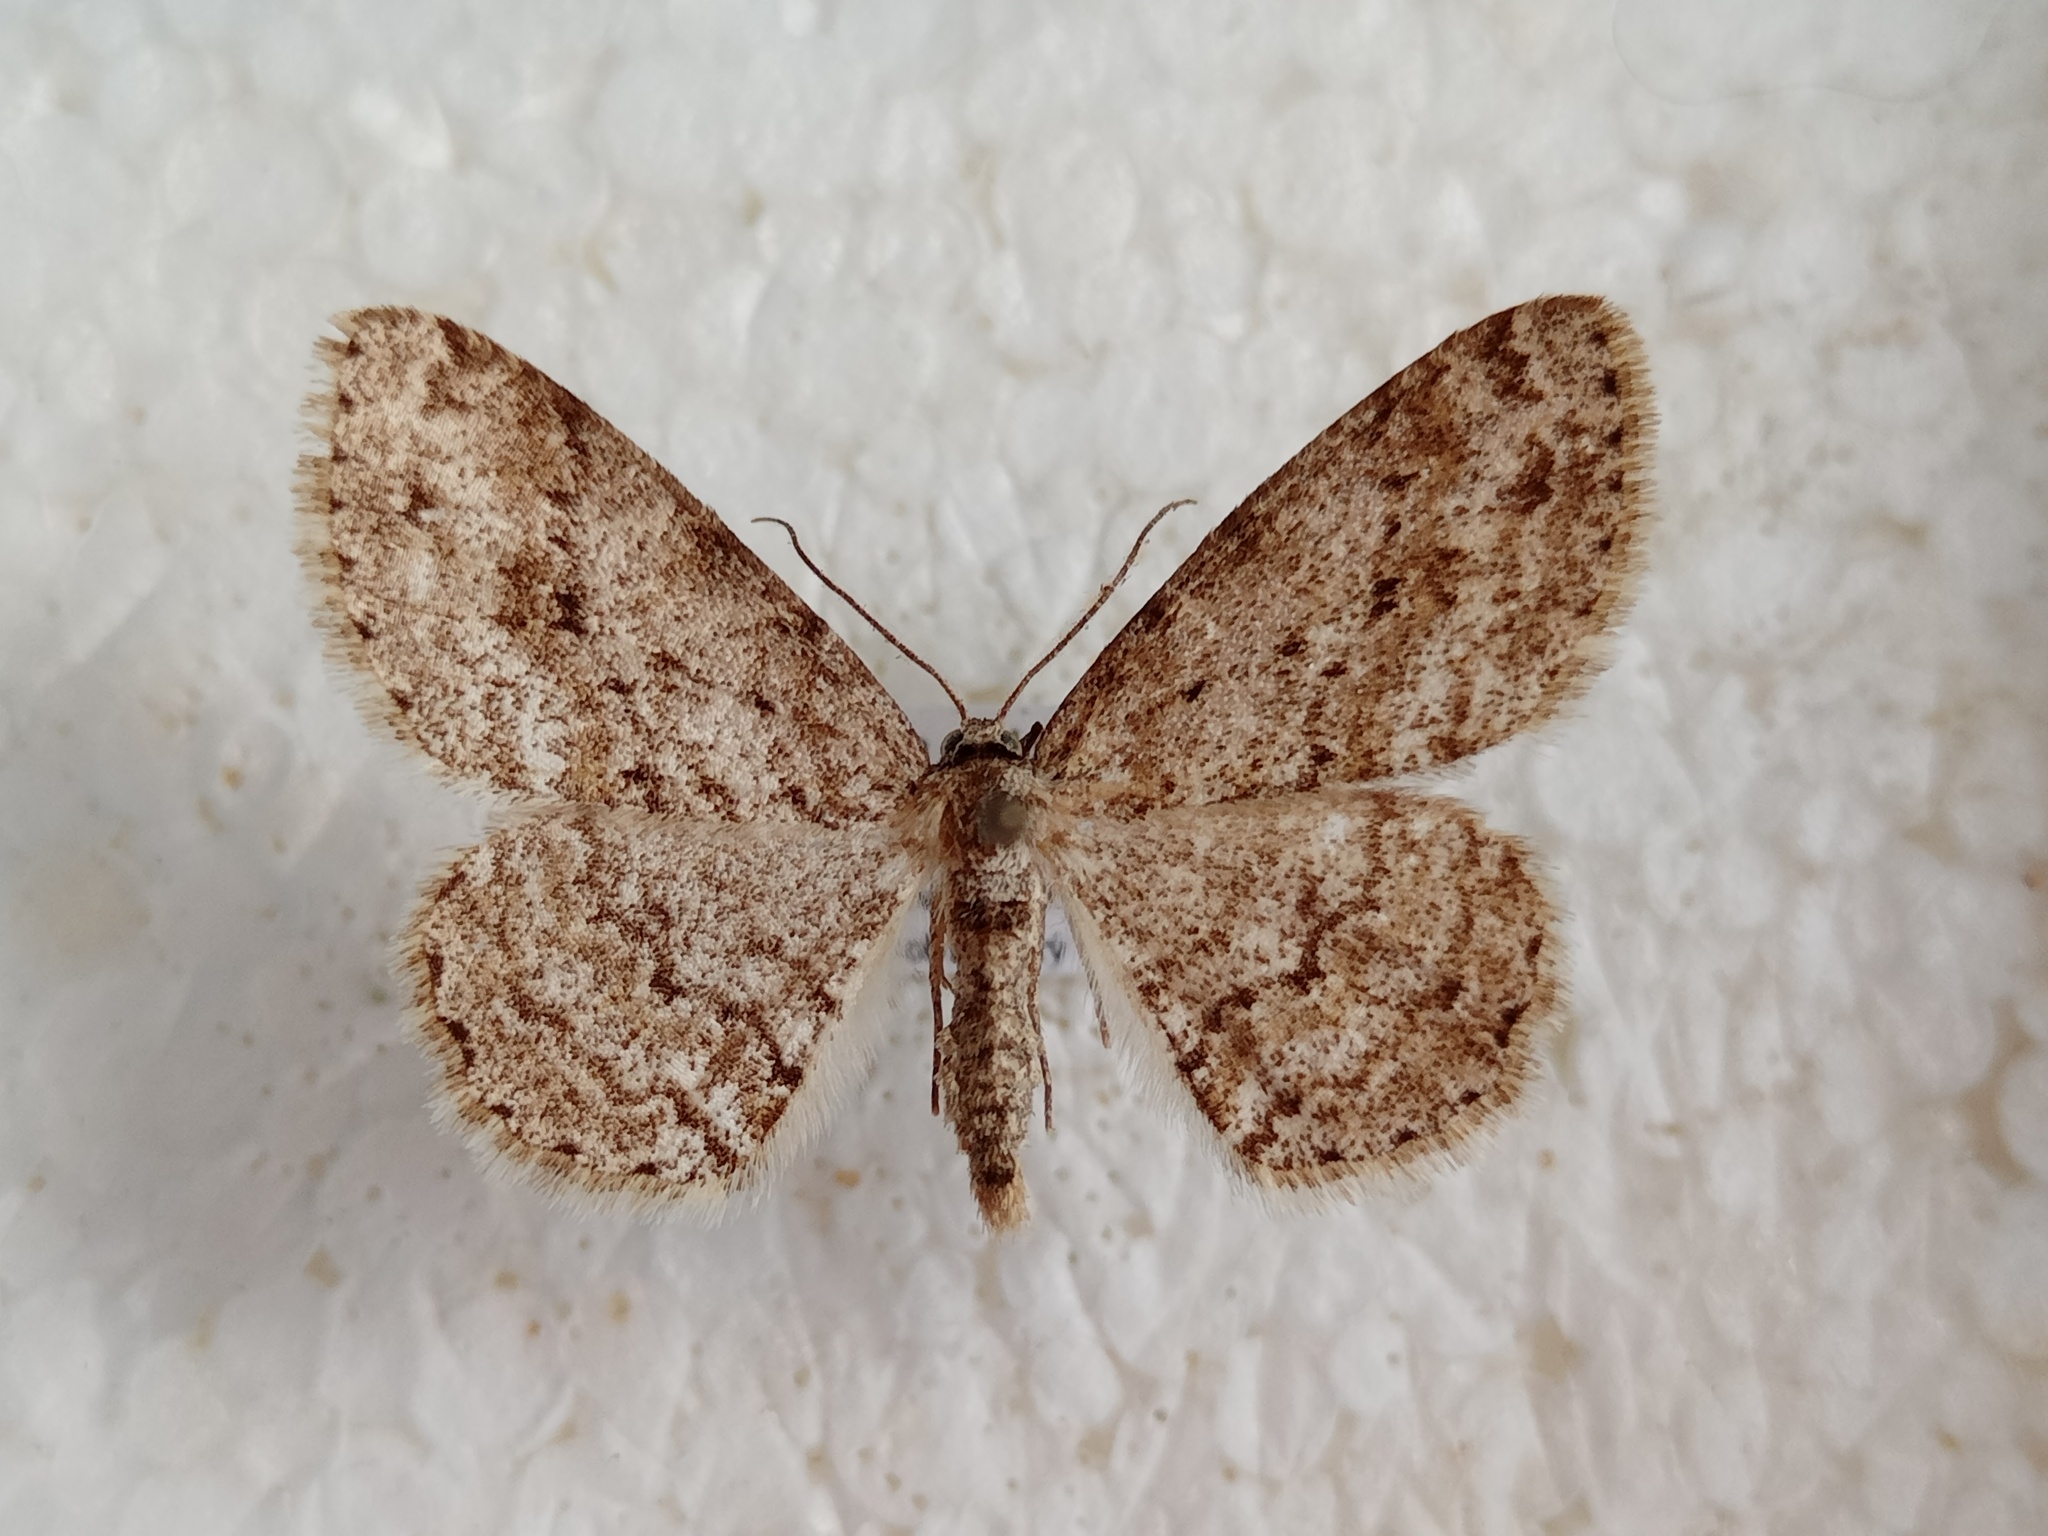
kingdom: Animalia
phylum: Arthropoda
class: Insecta
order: Lepidoptera
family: Geometridae
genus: Ectropis
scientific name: Ectropis crepuscularia
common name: Engrailed
